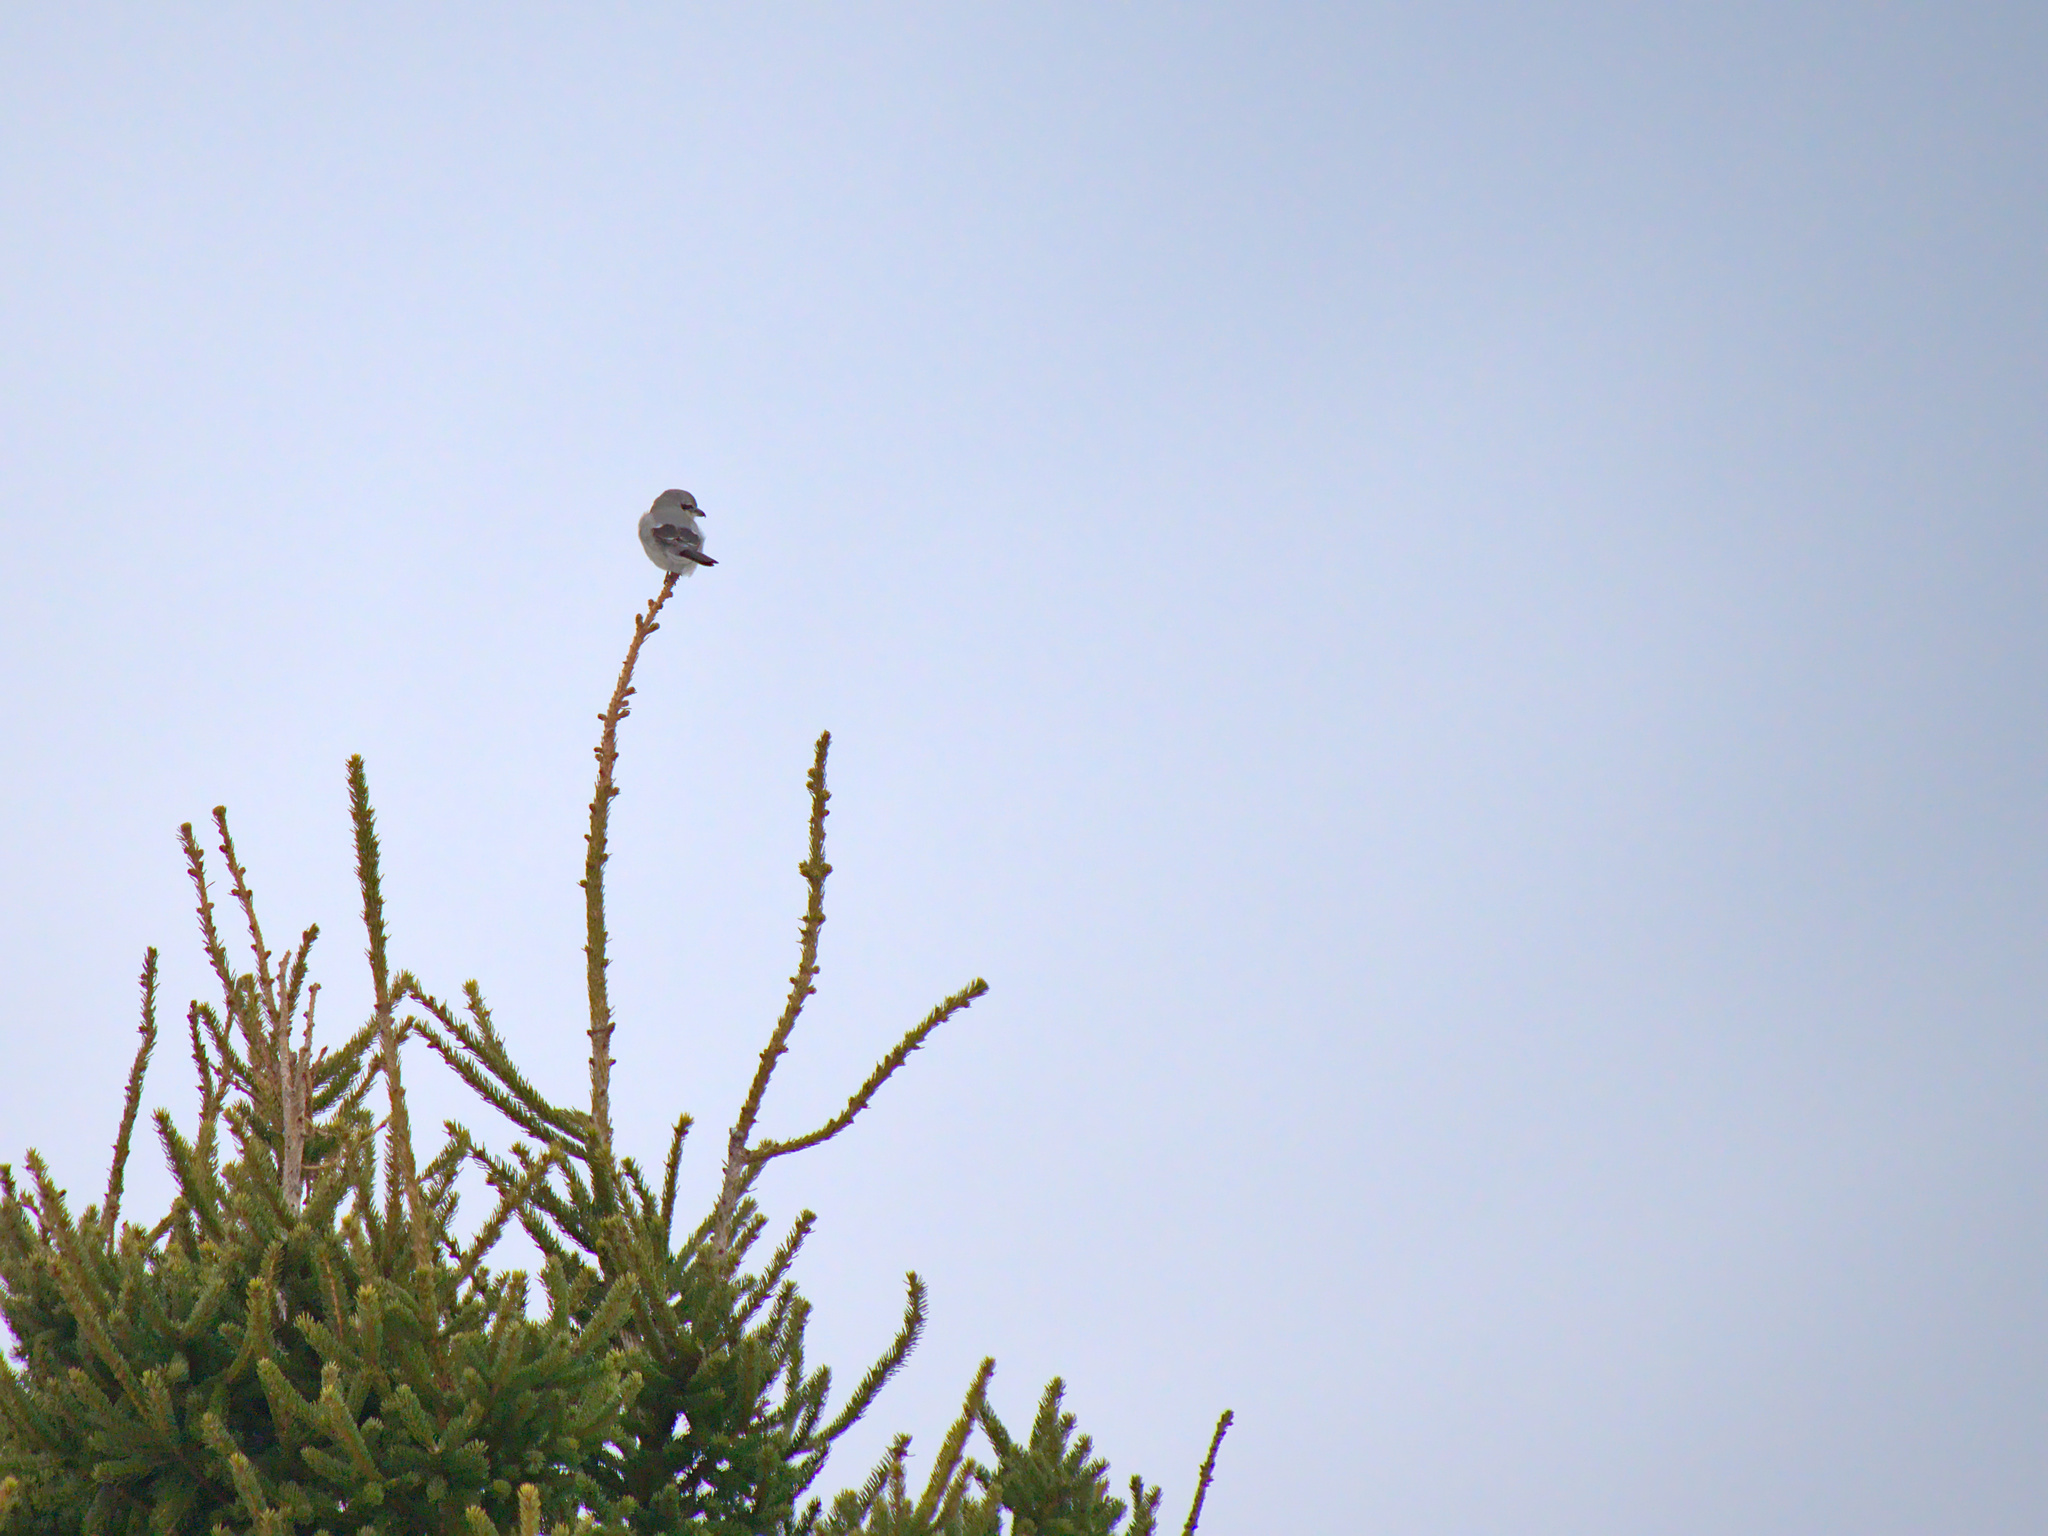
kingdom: Animalia
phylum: Chordata
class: Aves
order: Passeriformes
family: Laniidae
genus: Lanius
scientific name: Lanius borealis
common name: Northern shrike
